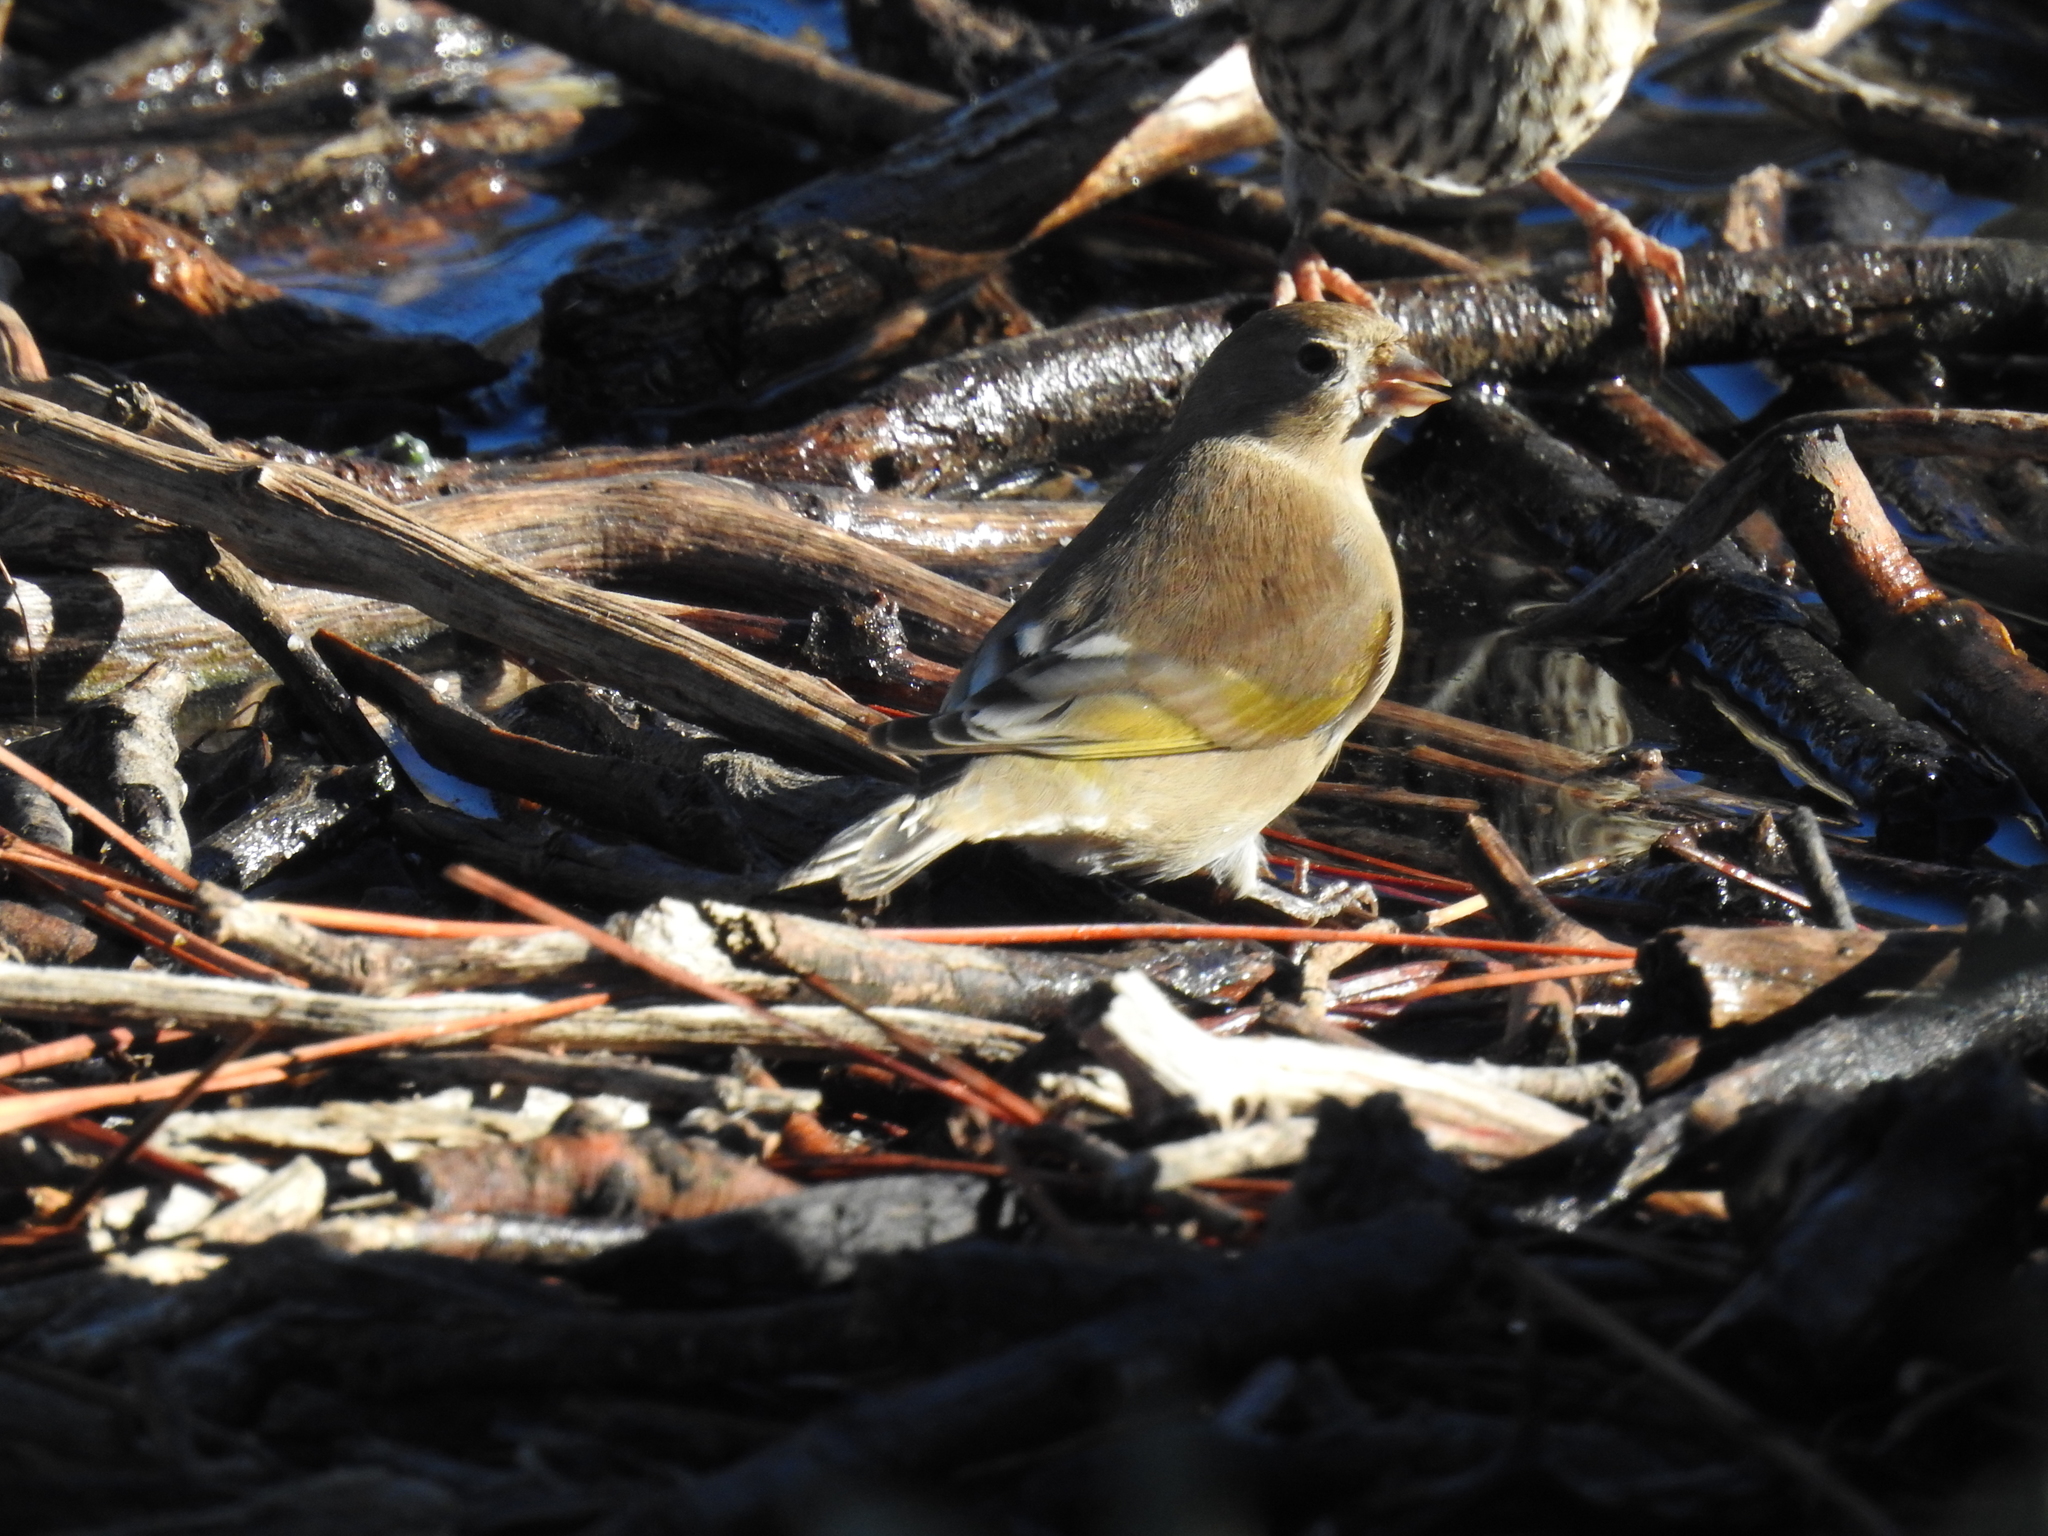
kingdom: Animalia
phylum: Chordata
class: Aves
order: Passeriformes
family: Fringillidae
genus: Spinus
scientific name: Spinus lawrencei
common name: Lawrence's goldfinch
